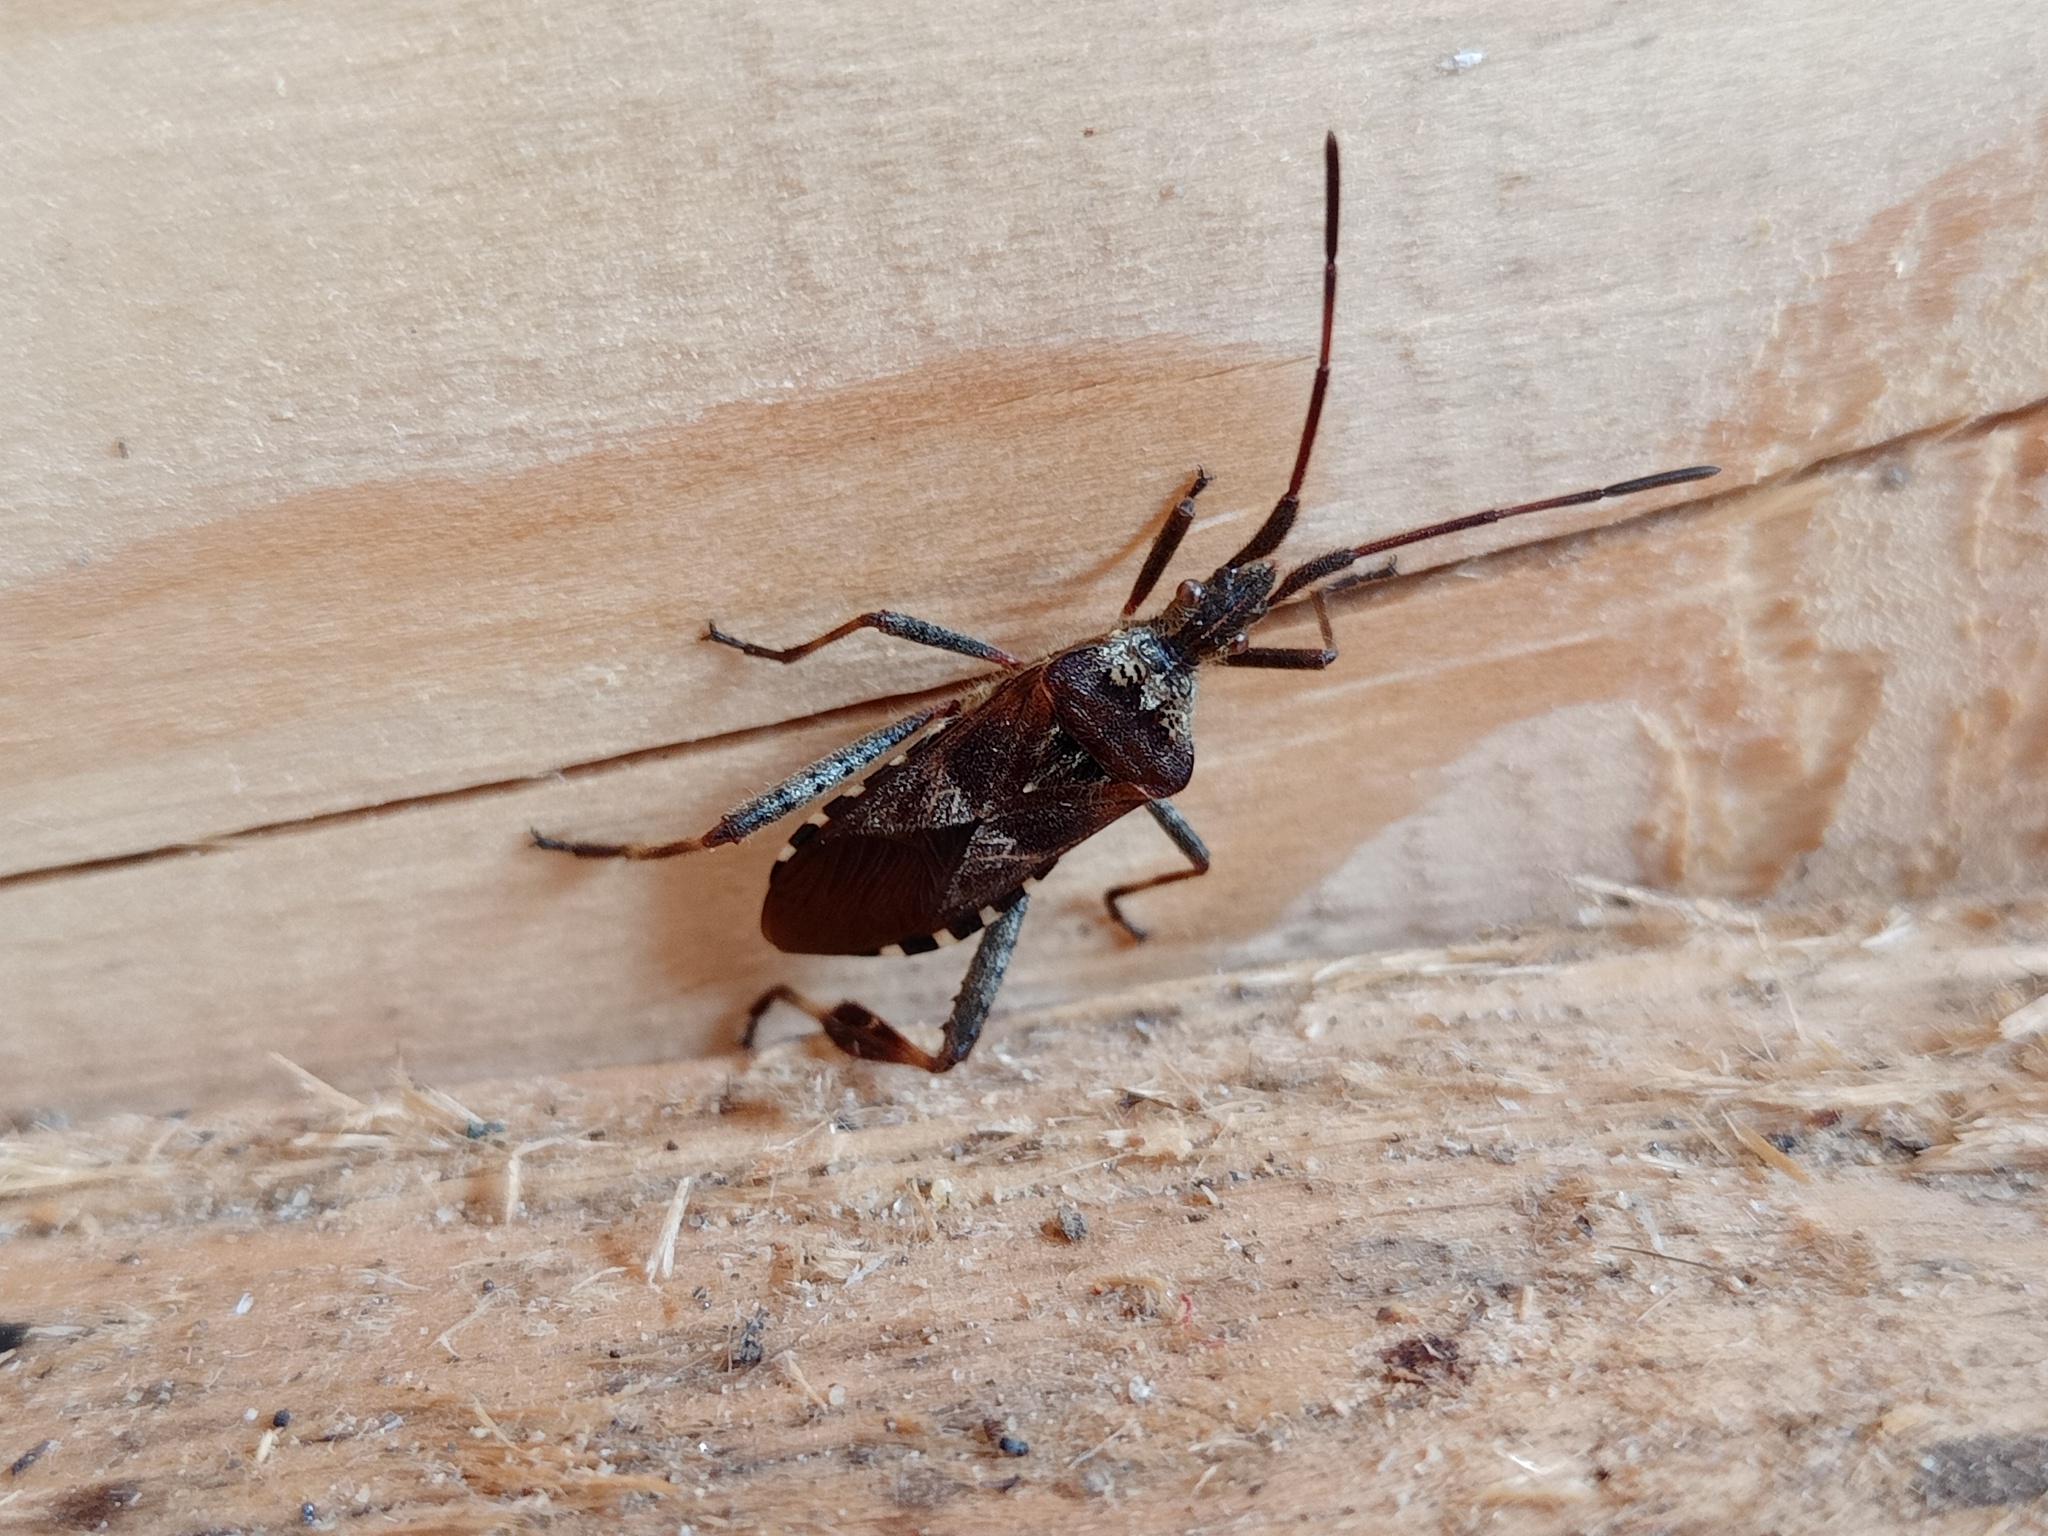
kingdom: Animalia
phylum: Arthropoda
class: Insecta
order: Hemiptera
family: Coreidae
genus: Leptoglossus
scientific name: Leptoglossus occidentalis
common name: Western conifer-seed bug
